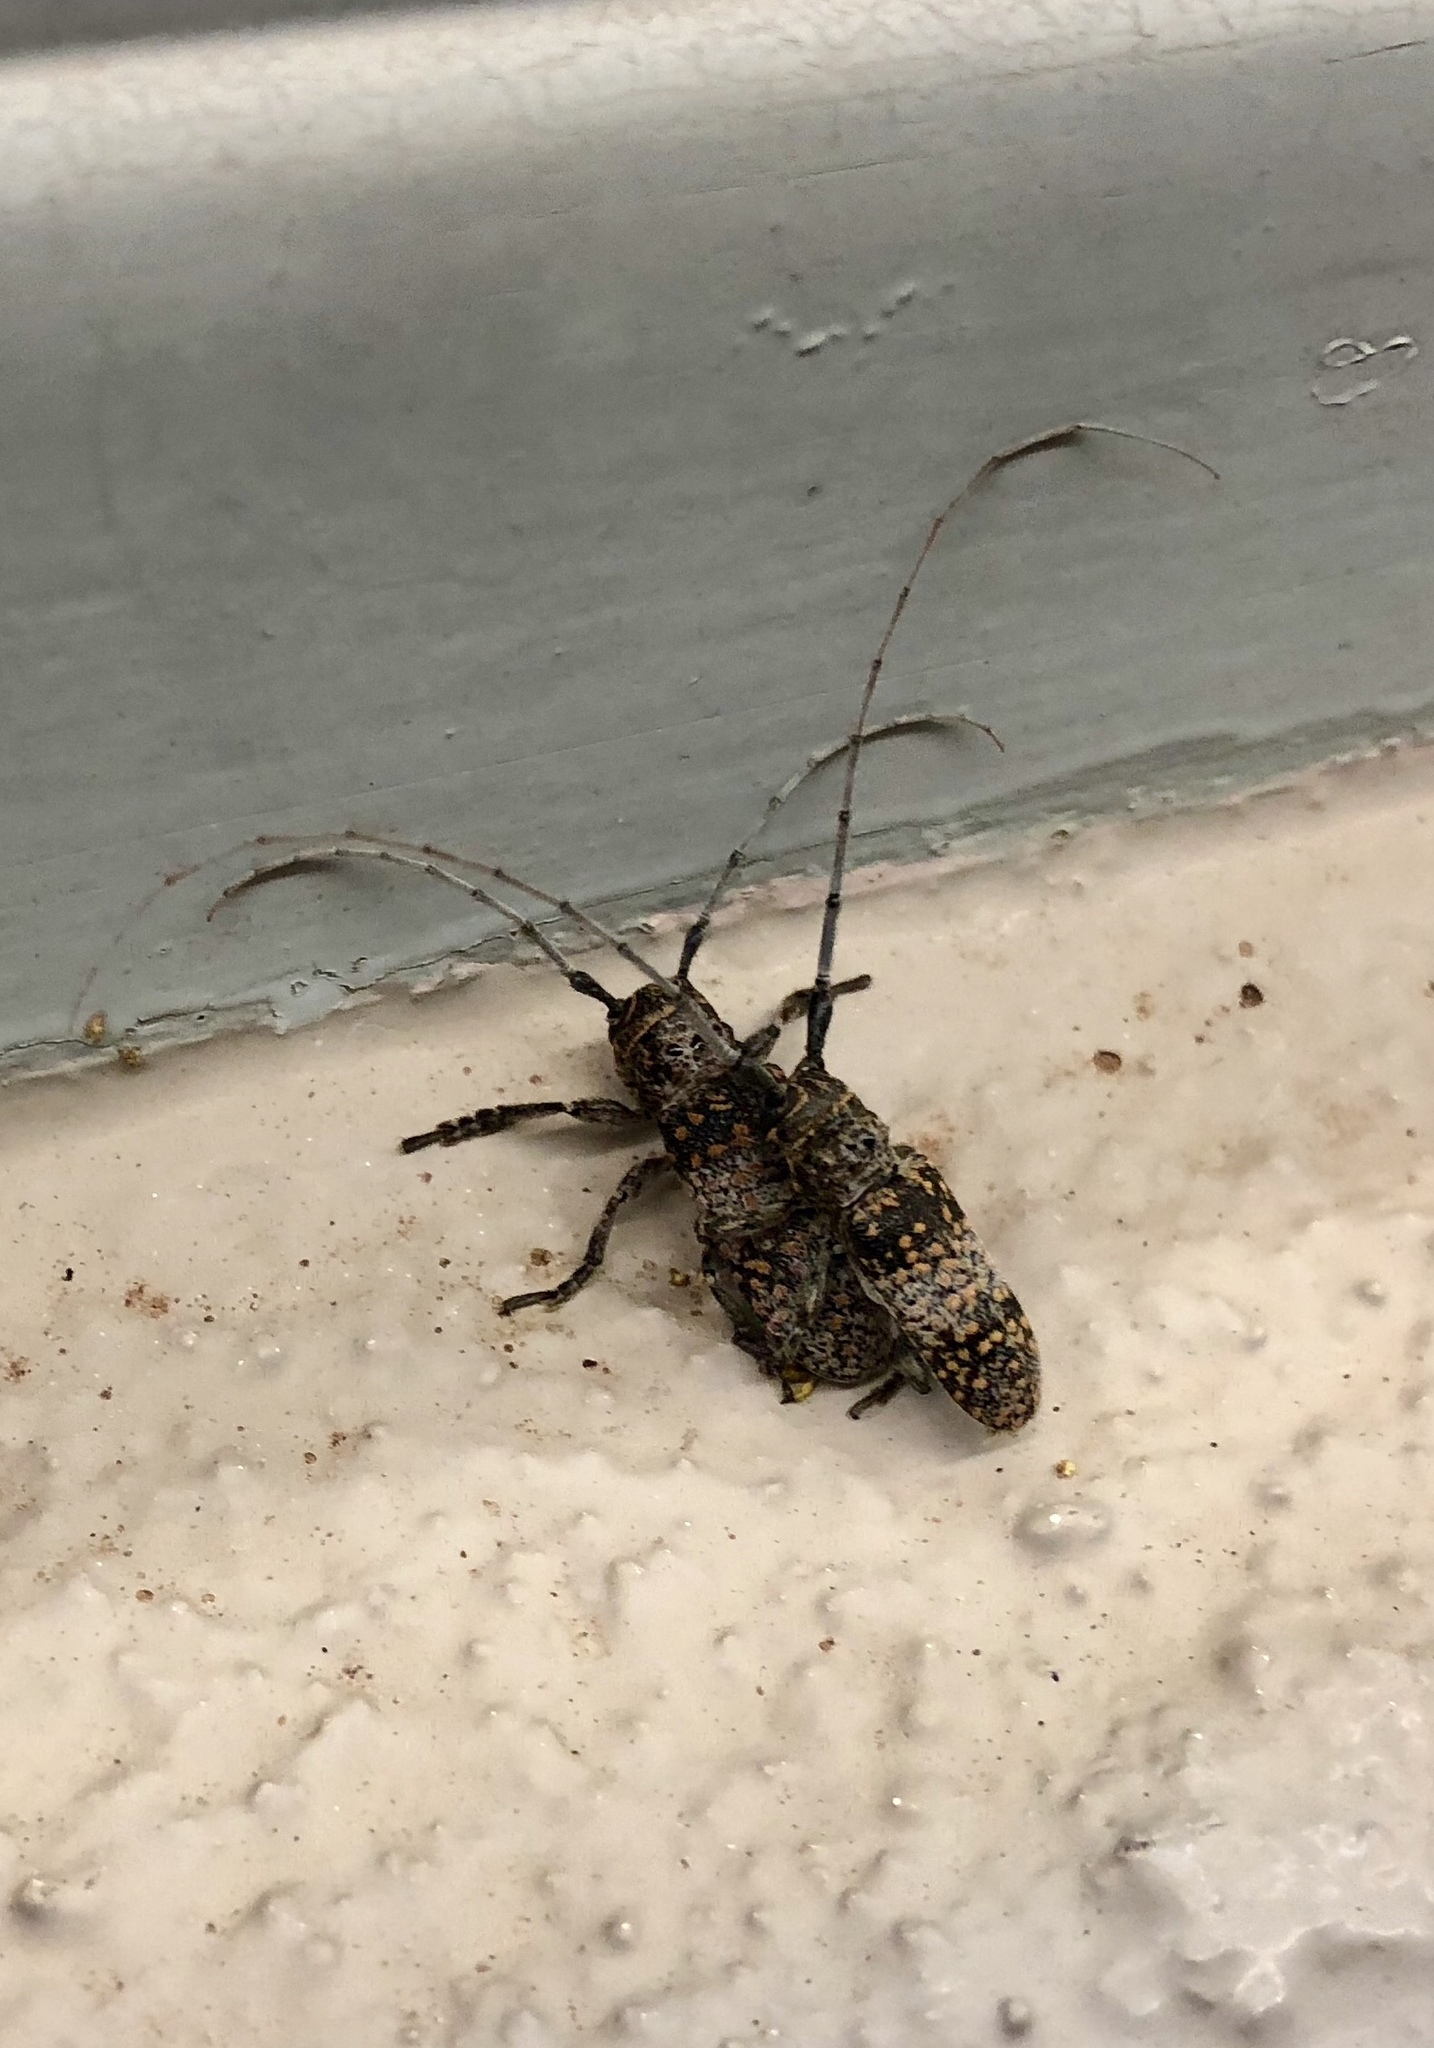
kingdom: Animalia
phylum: Arthropoda
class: Insecta
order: Coleoptera
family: Cerambycidae
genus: Oncideres
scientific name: Oncideres rhodosticta
